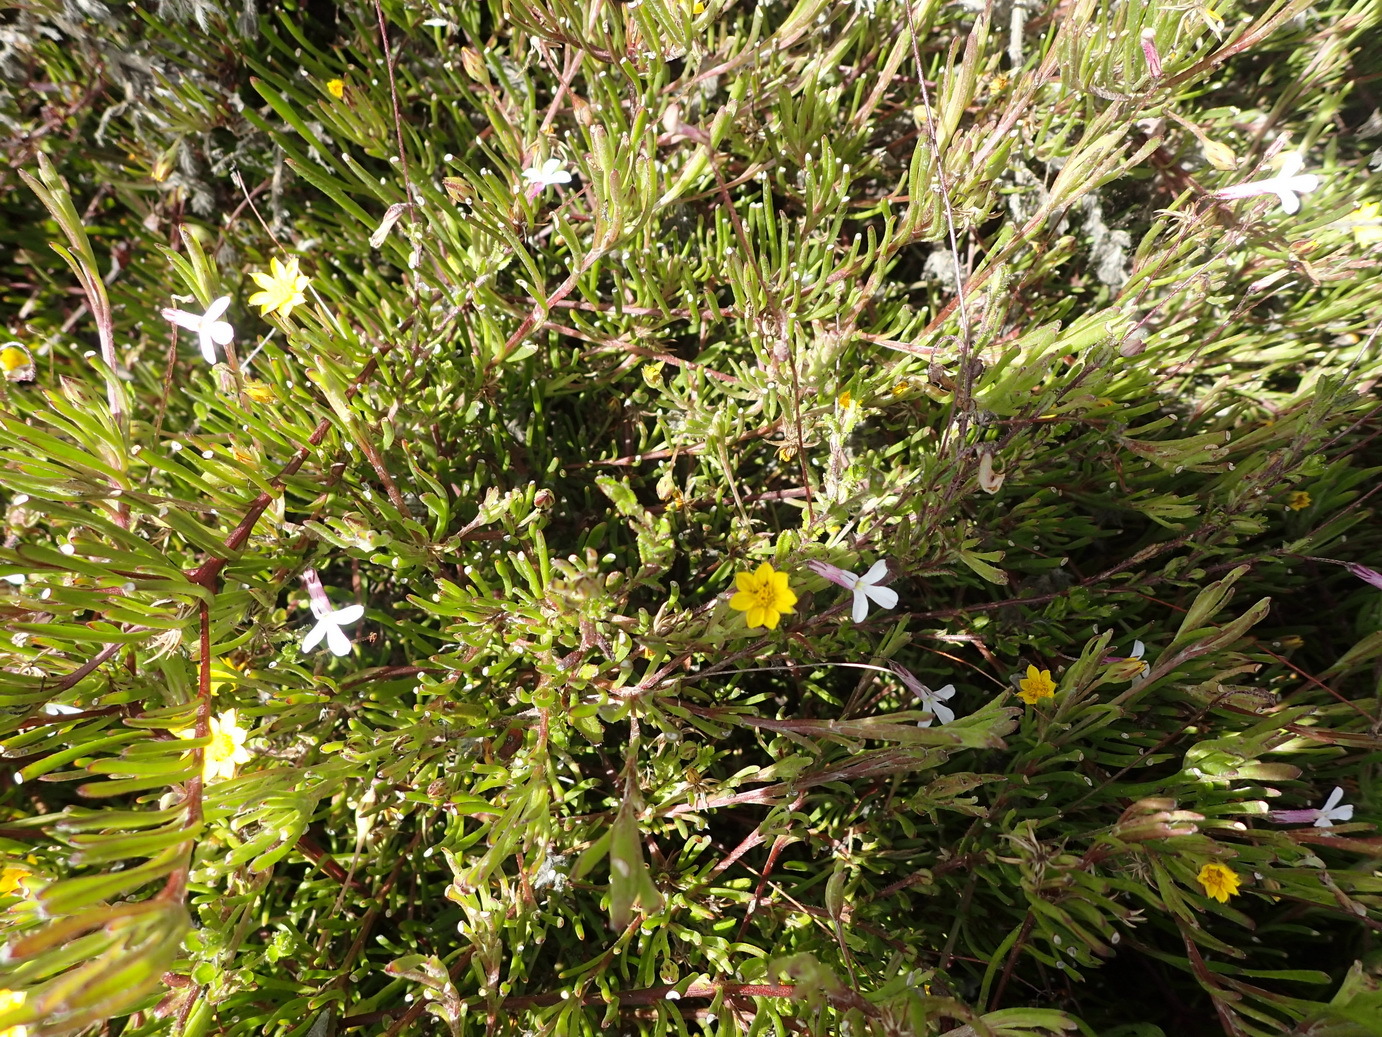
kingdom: Plantae
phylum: Tracheophyta
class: Magnoliopsida
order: Asterales
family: Asteraceae
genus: Osteospermum
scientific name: Osteospermum triquetrum
